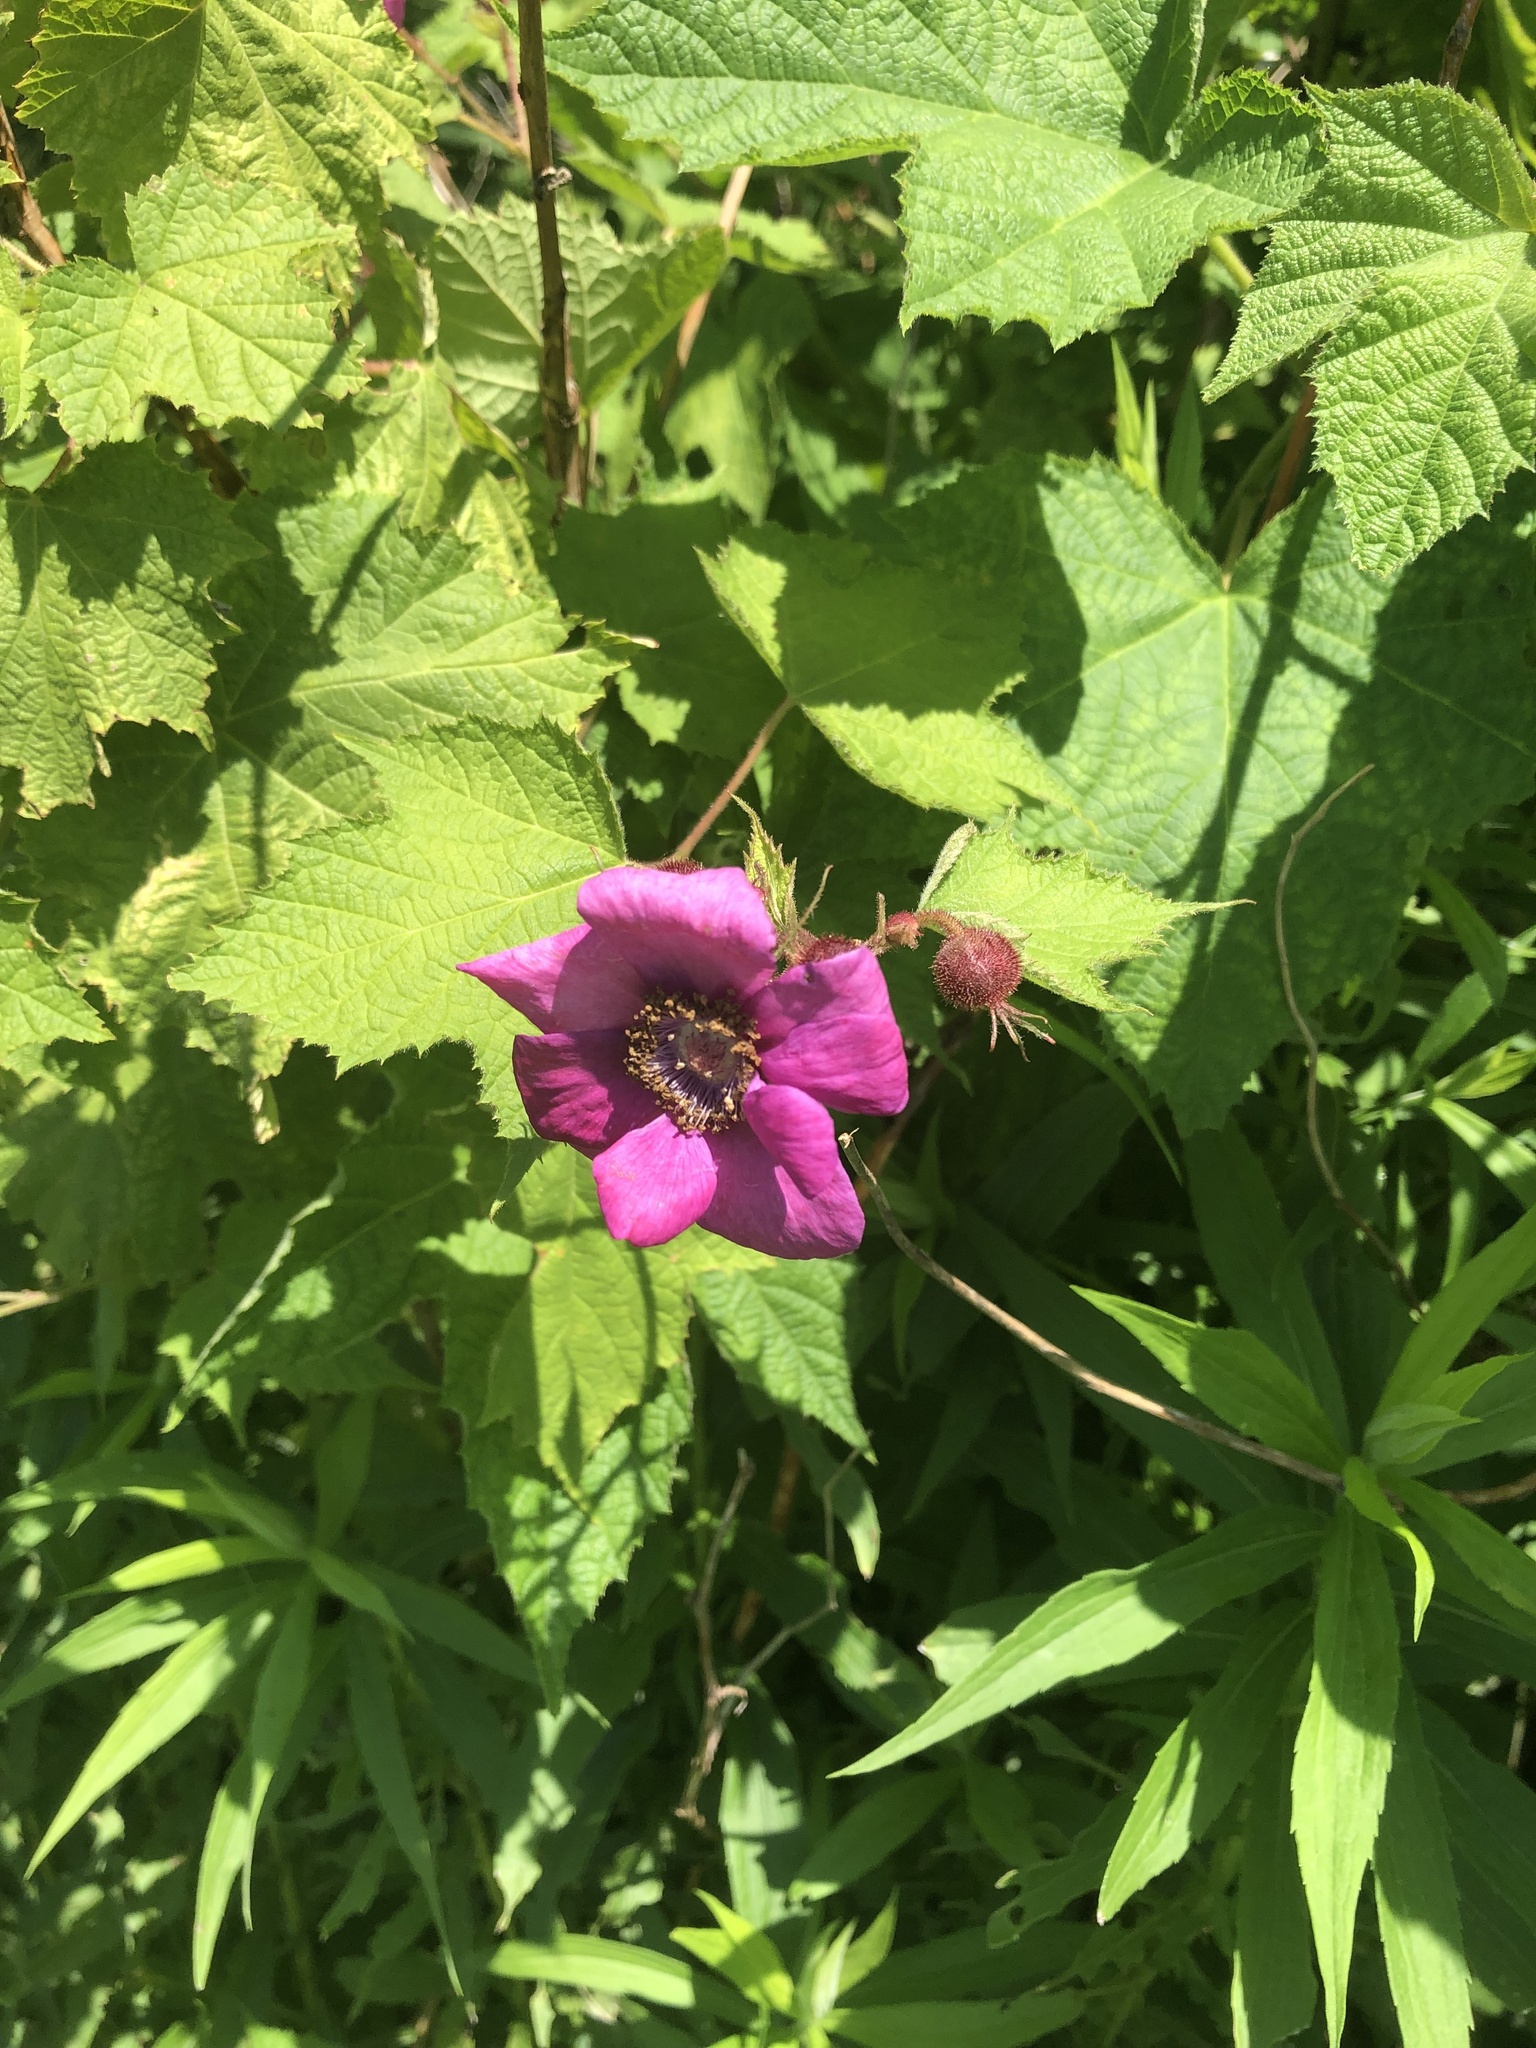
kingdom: Plantae
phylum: Tracheophyta
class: Magnoliopsida
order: Rosales
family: Rosaceae
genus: Rubus
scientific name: Rubus odoratus
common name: Purple-flowered raspberry
